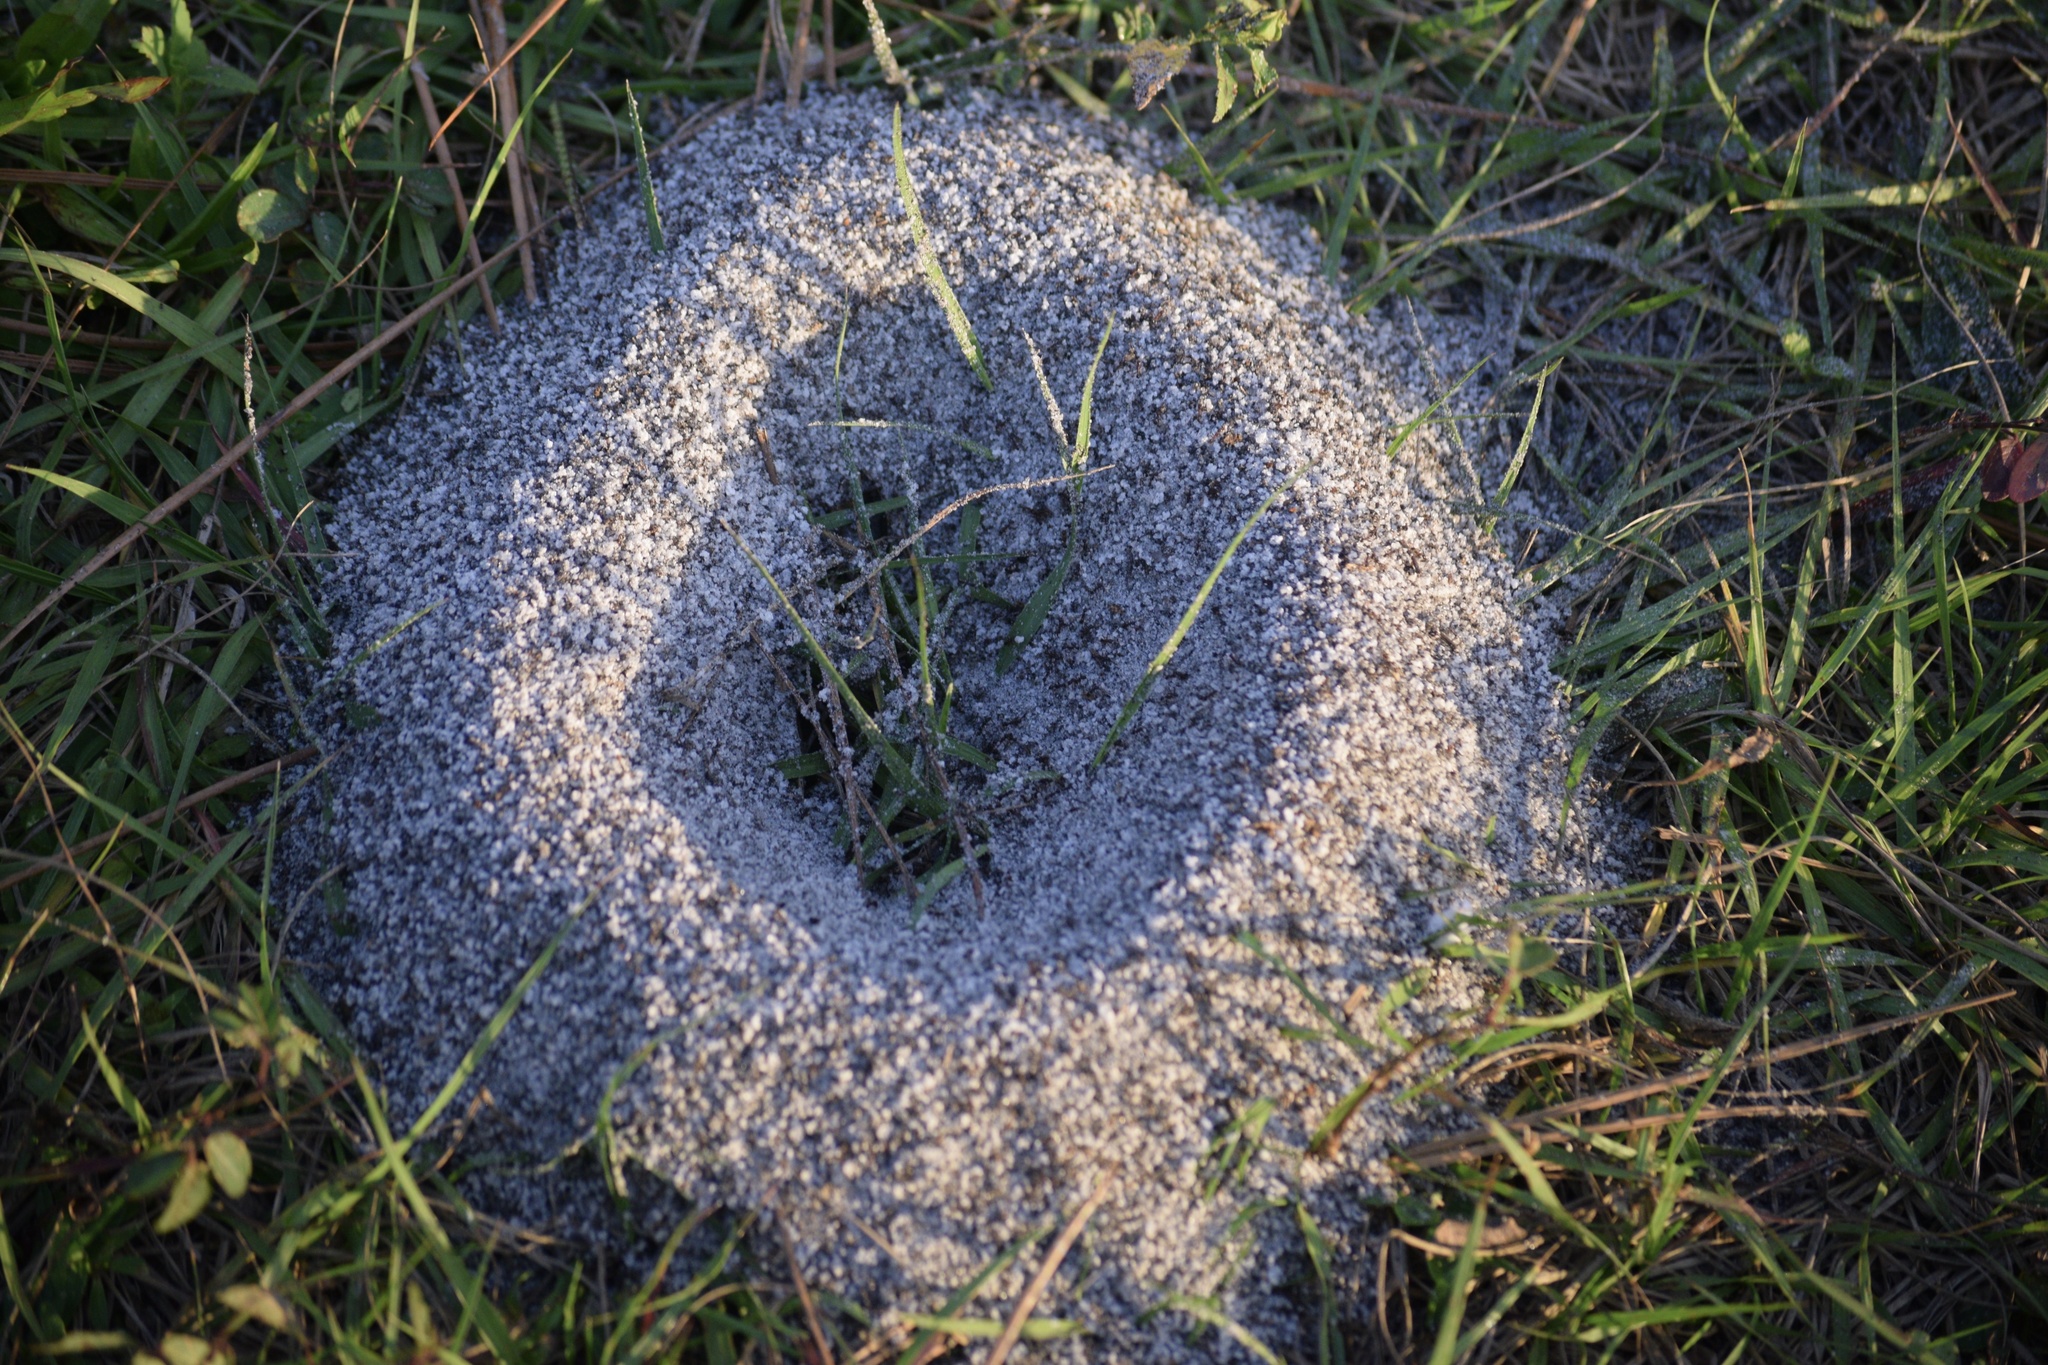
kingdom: Animalia
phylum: Arthropoda
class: Insecta
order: Hymenoptera
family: Formicidae
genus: Pheidole
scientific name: Pheidole obscurithorax
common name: Obscure big-headed ant
